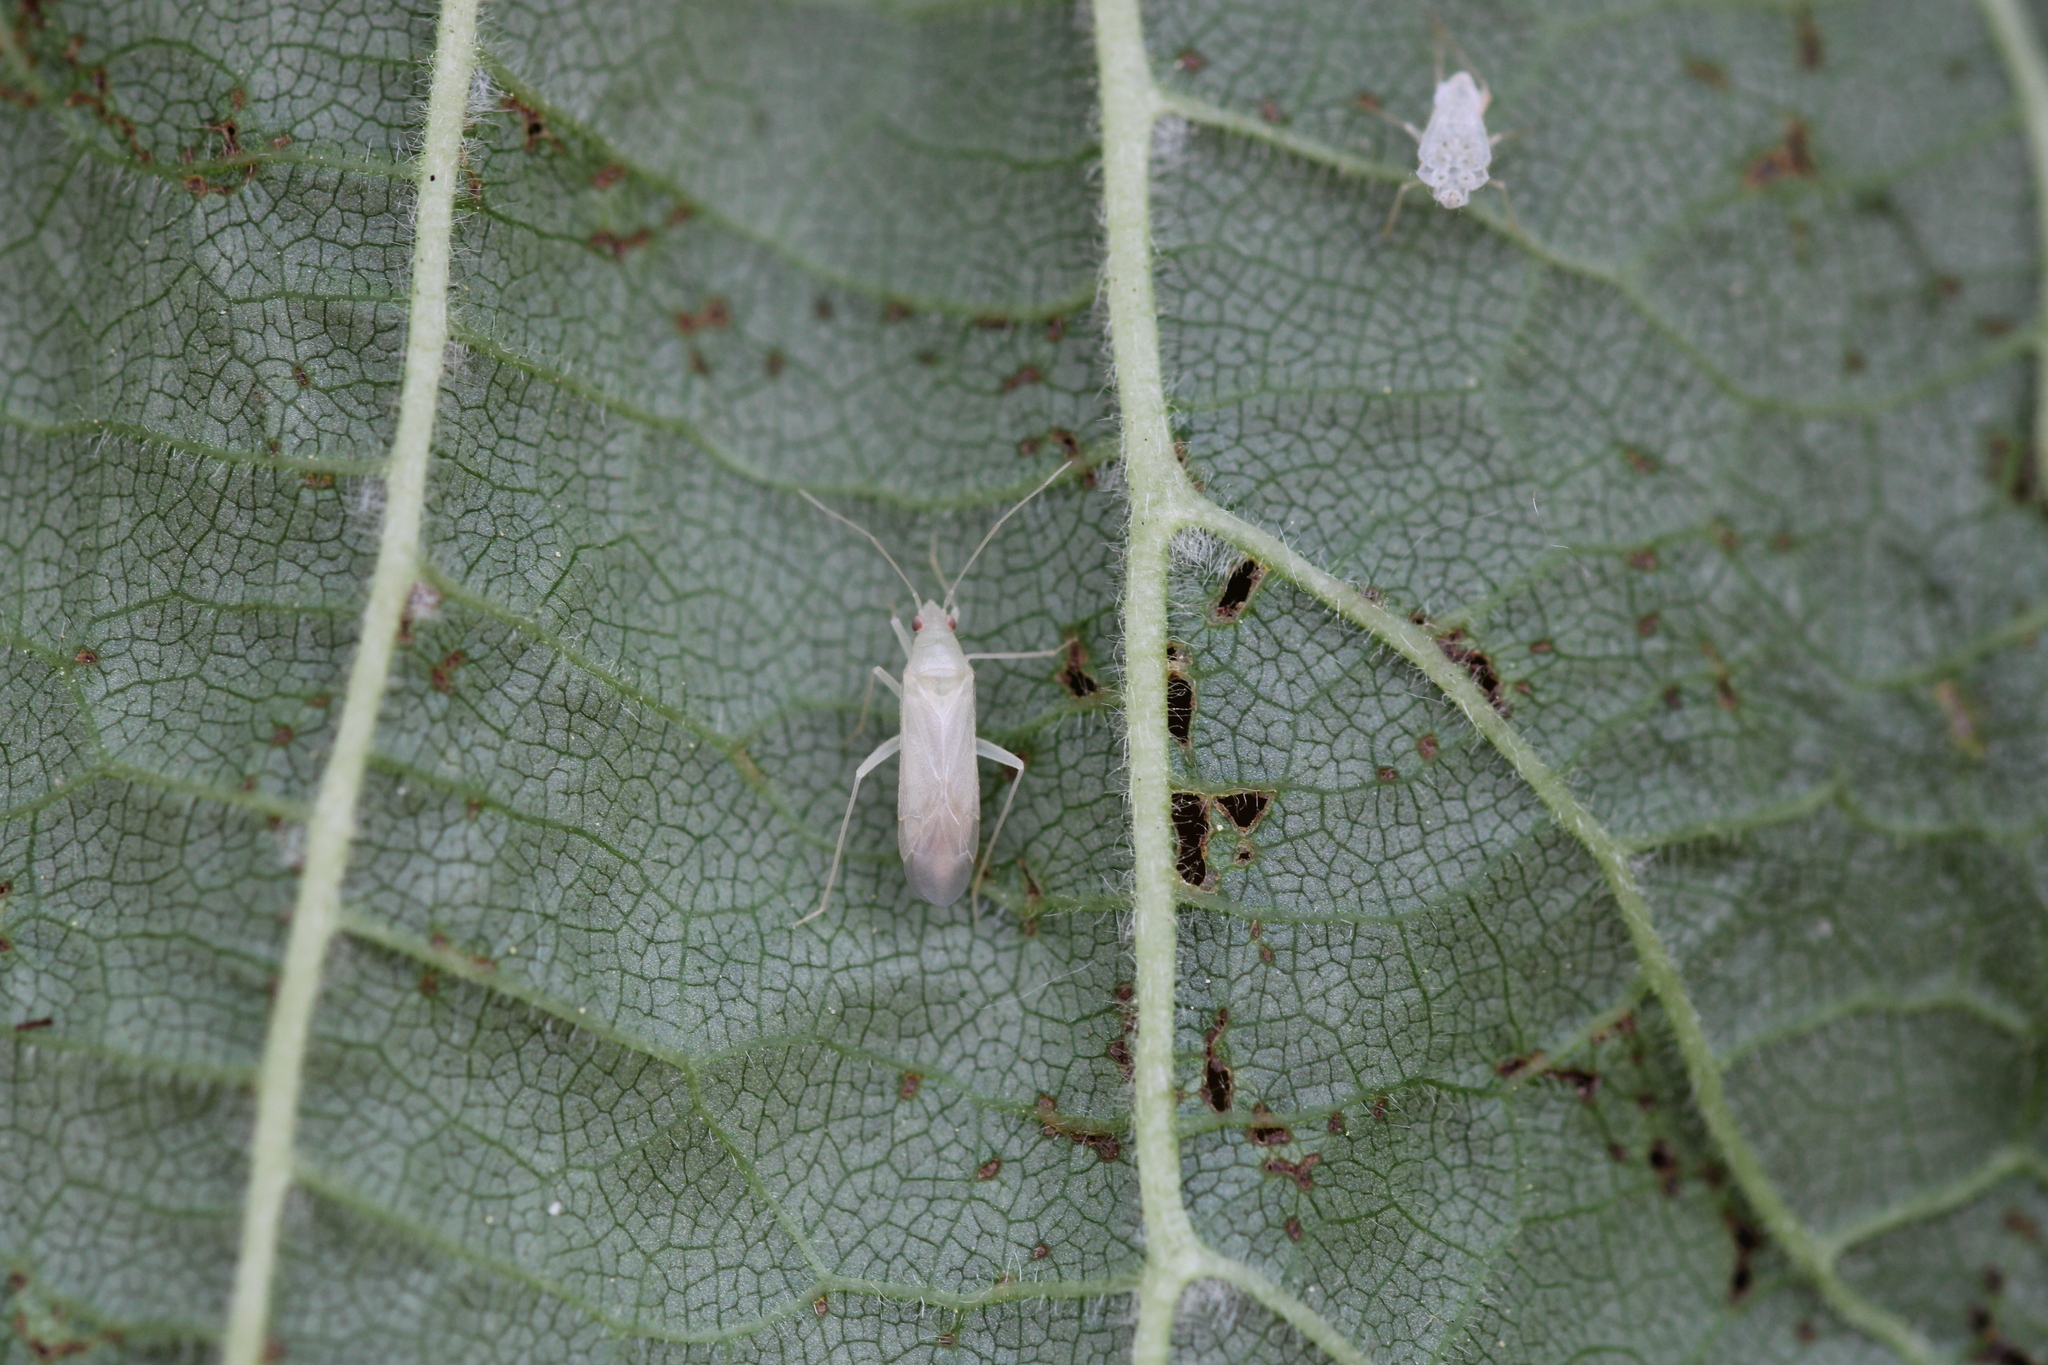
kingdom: Animalia
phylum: Arthropoda
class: Insecta
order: Hemiptera
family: Miridae
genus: Phylus
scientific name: Phylus coryli
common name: Plant bug
